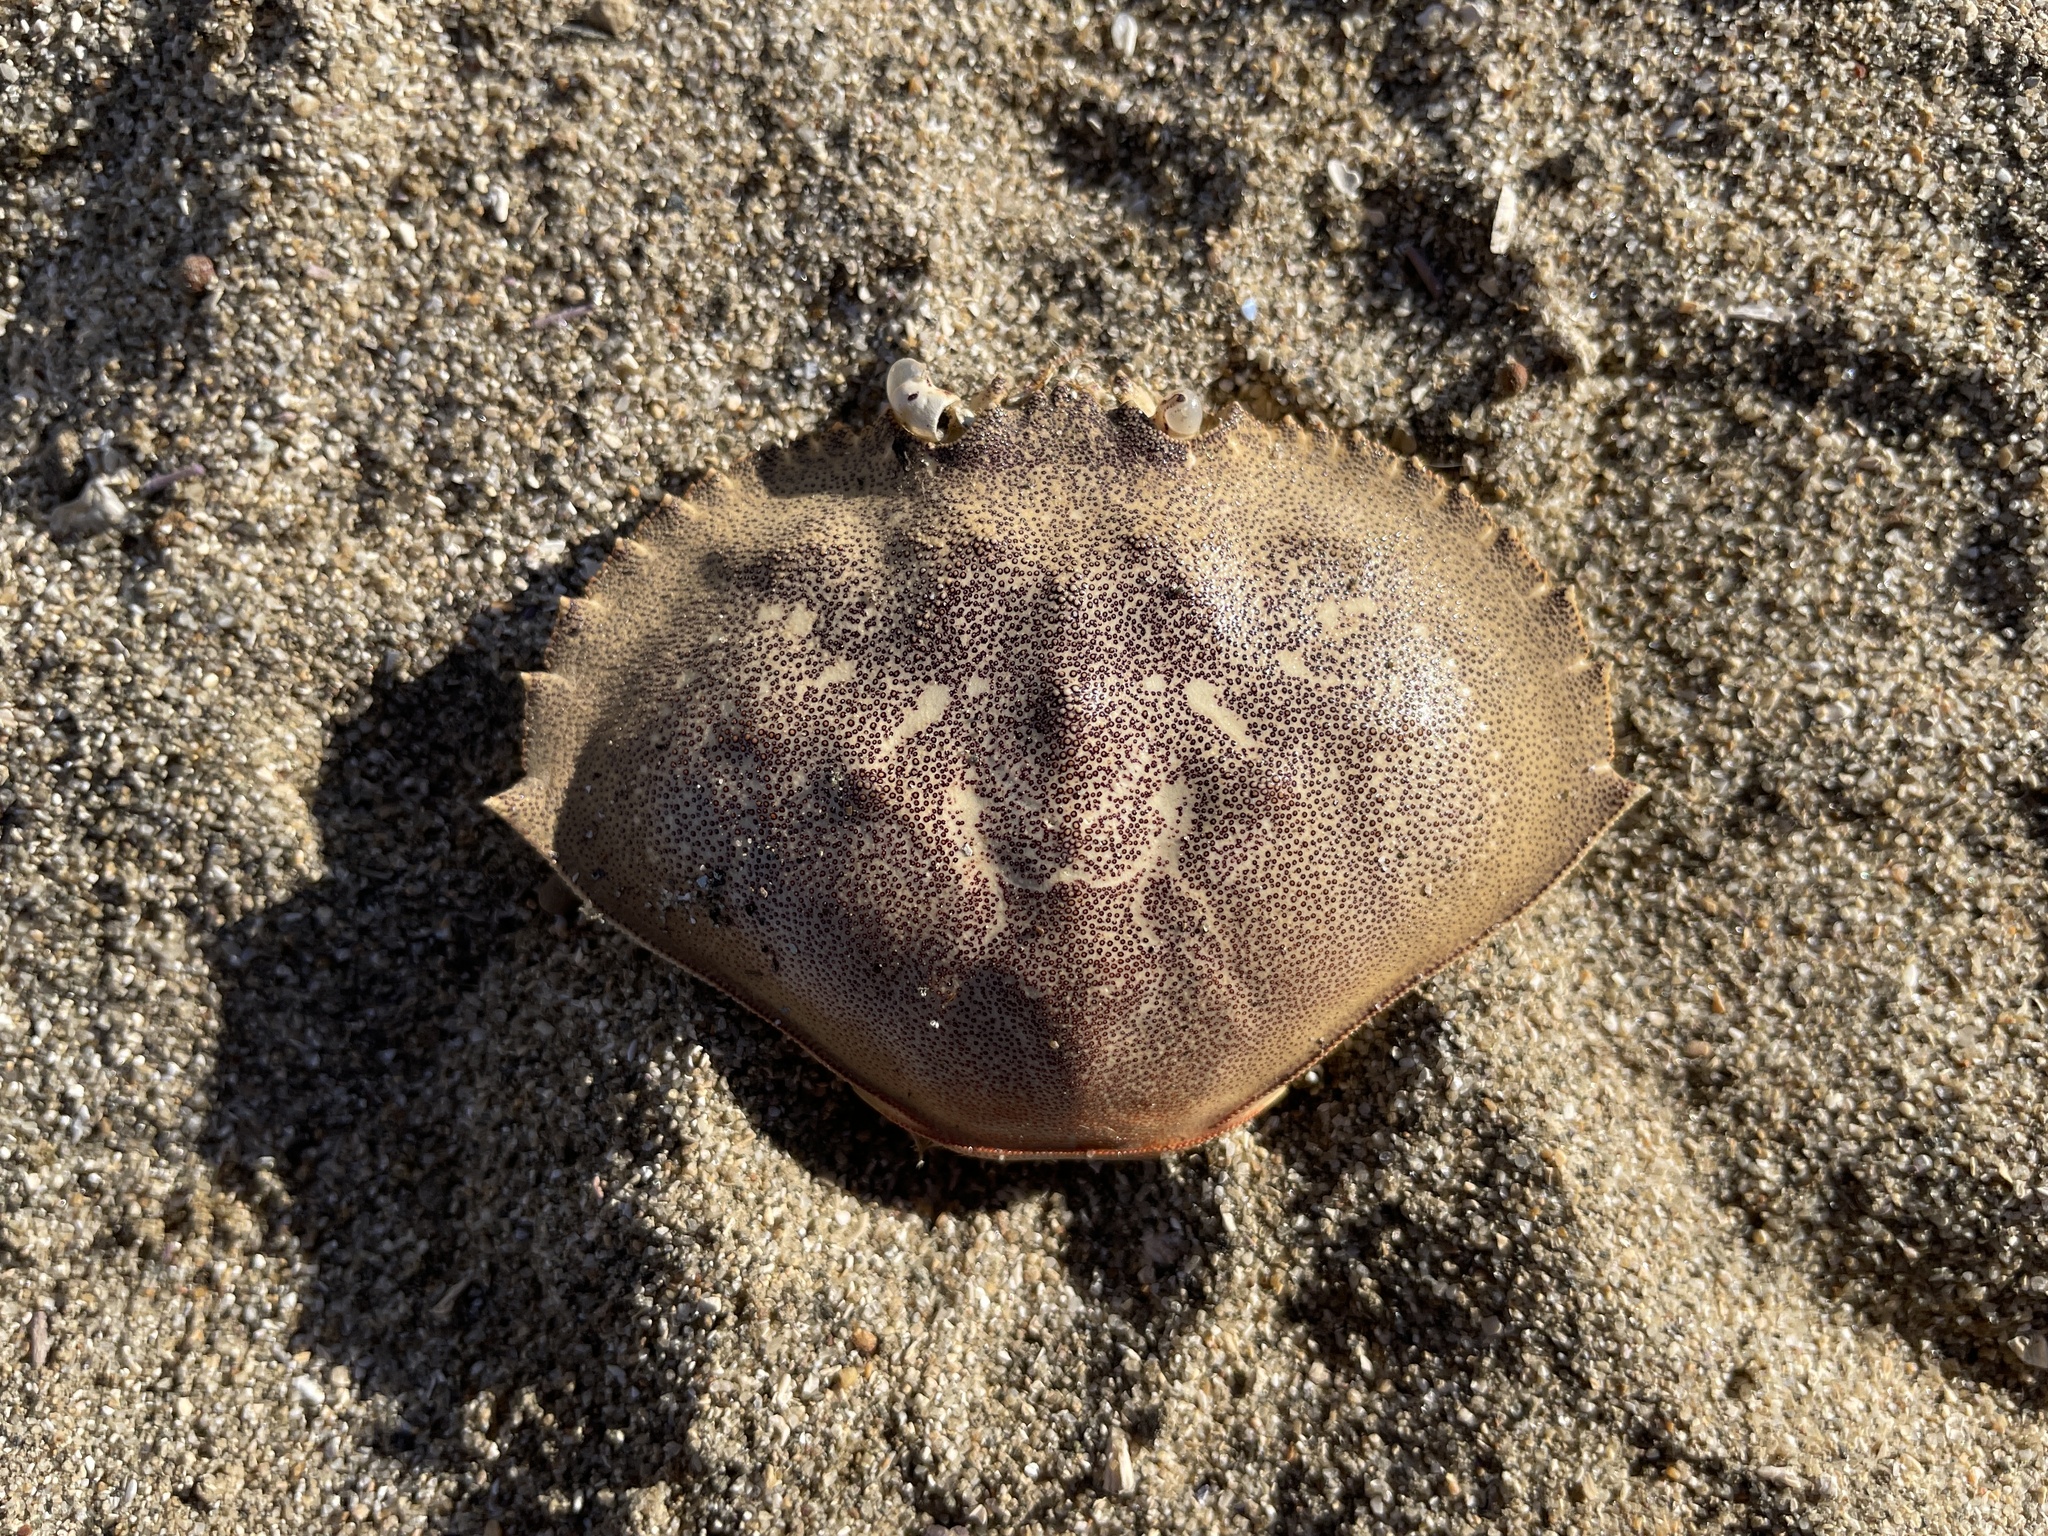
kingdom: Animalia
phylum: Arthropoda
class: Malacostraca
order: Decapoda
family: Cancridae
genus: Metacarcinus
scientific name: Metacarcinus magister
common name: Californian crab
